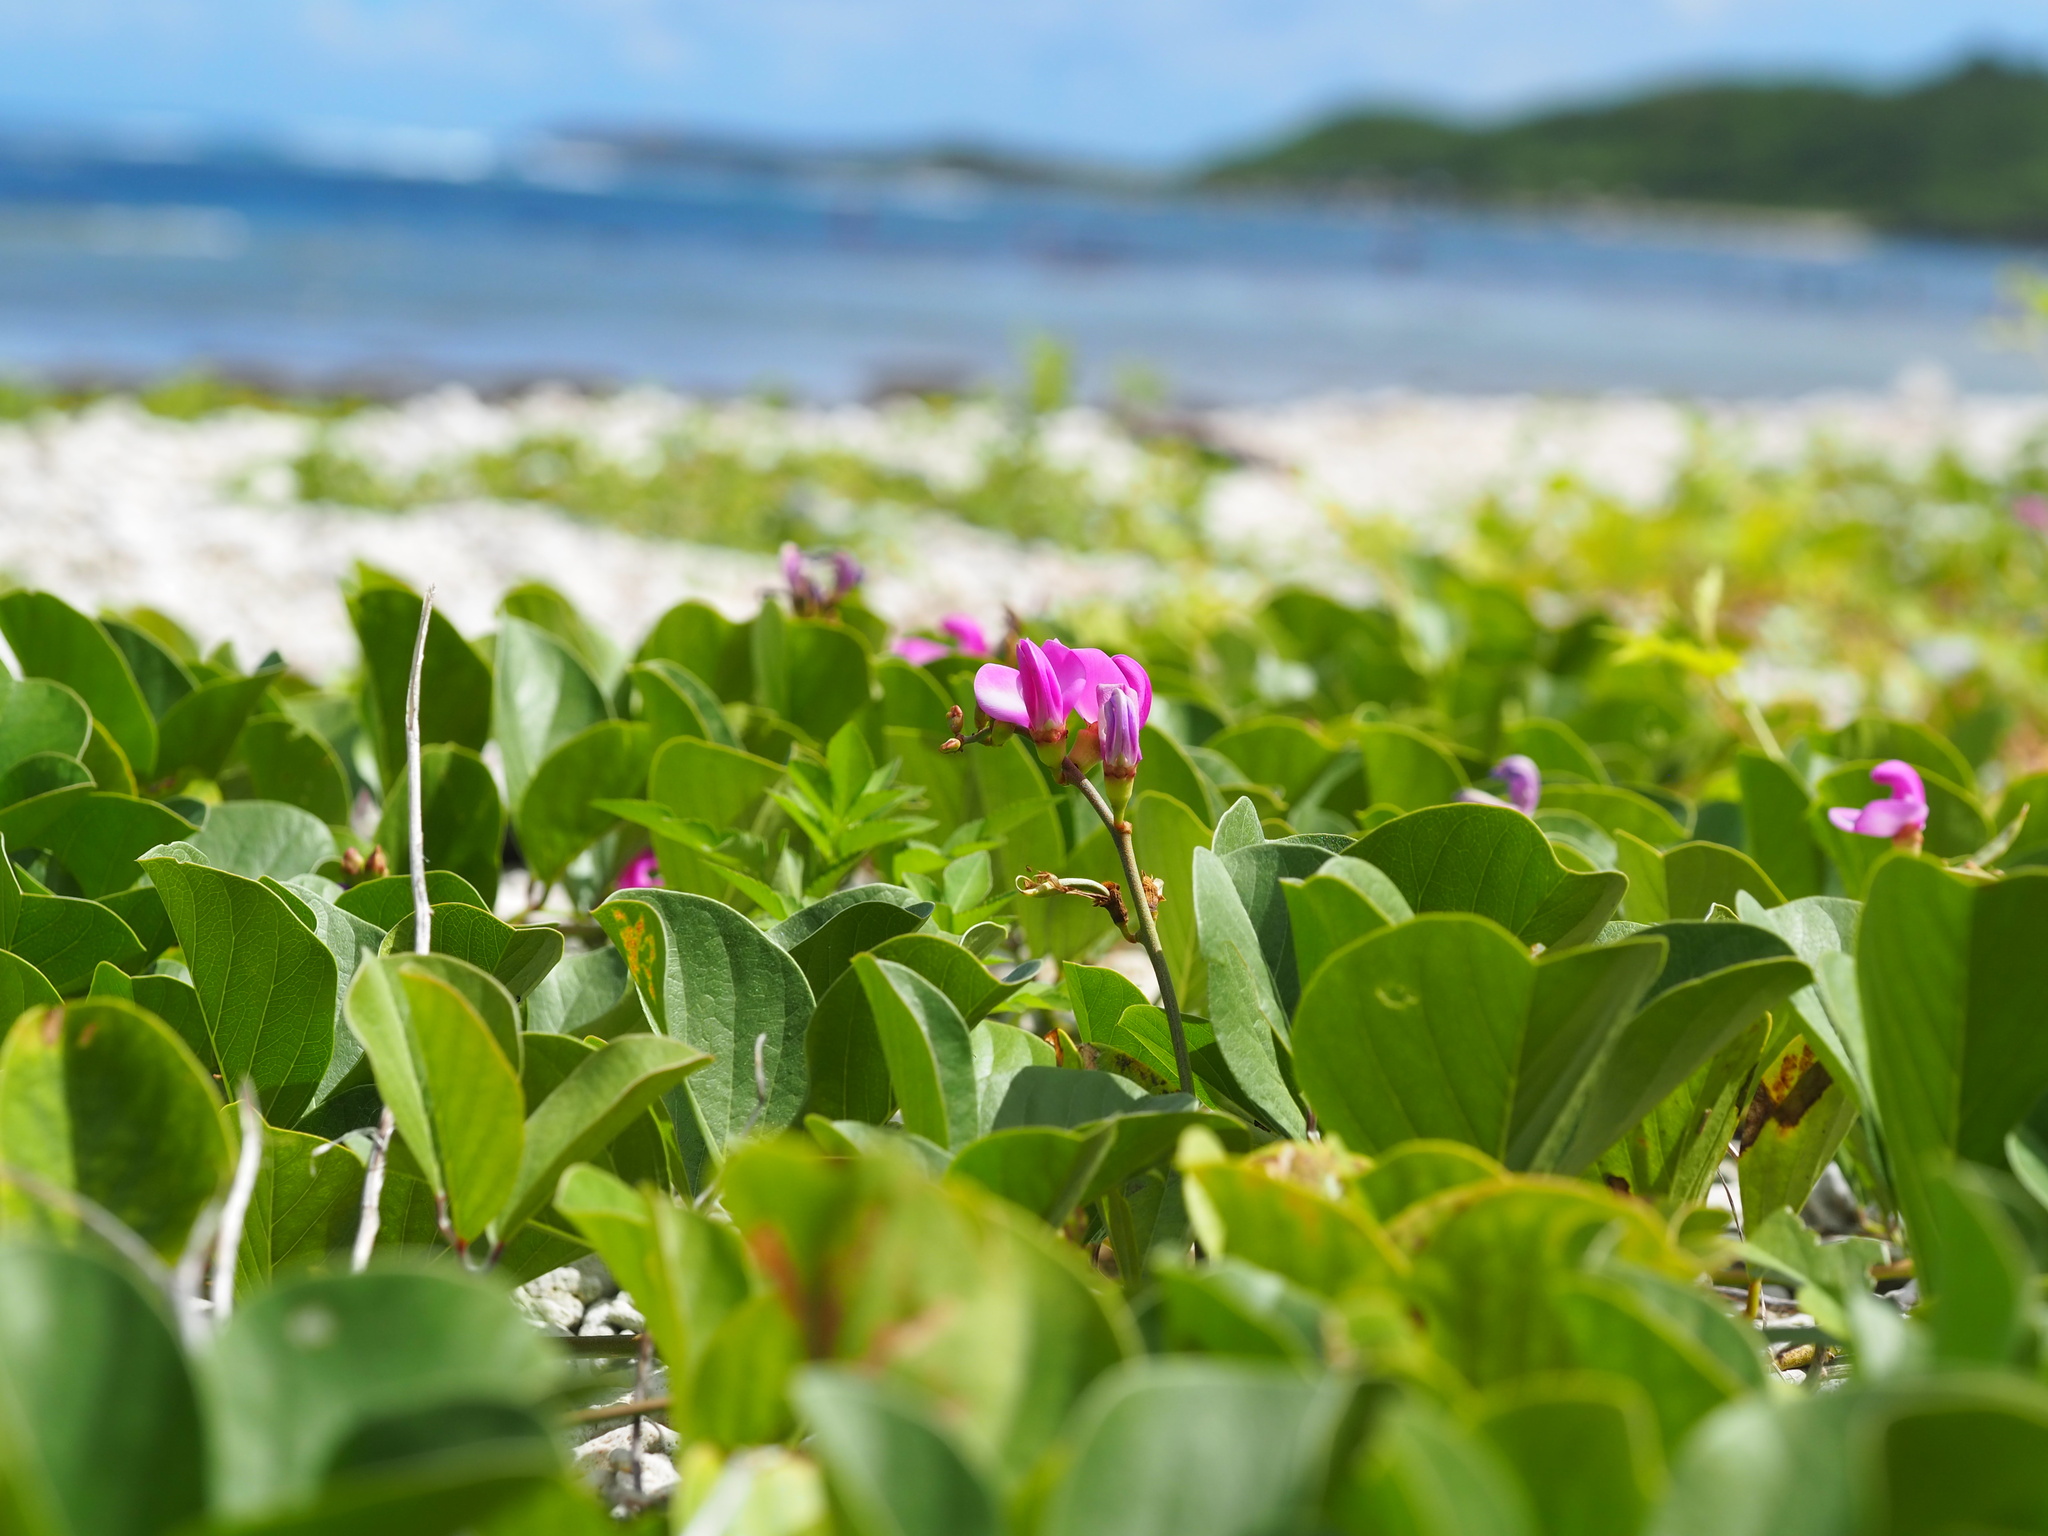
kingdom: Plantae
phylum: Tracheophyta
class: Magnoliopsida
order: Fabales
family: Fabaceae
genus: Canavalia
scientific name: Canavalia rosea
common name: Beach-bean
